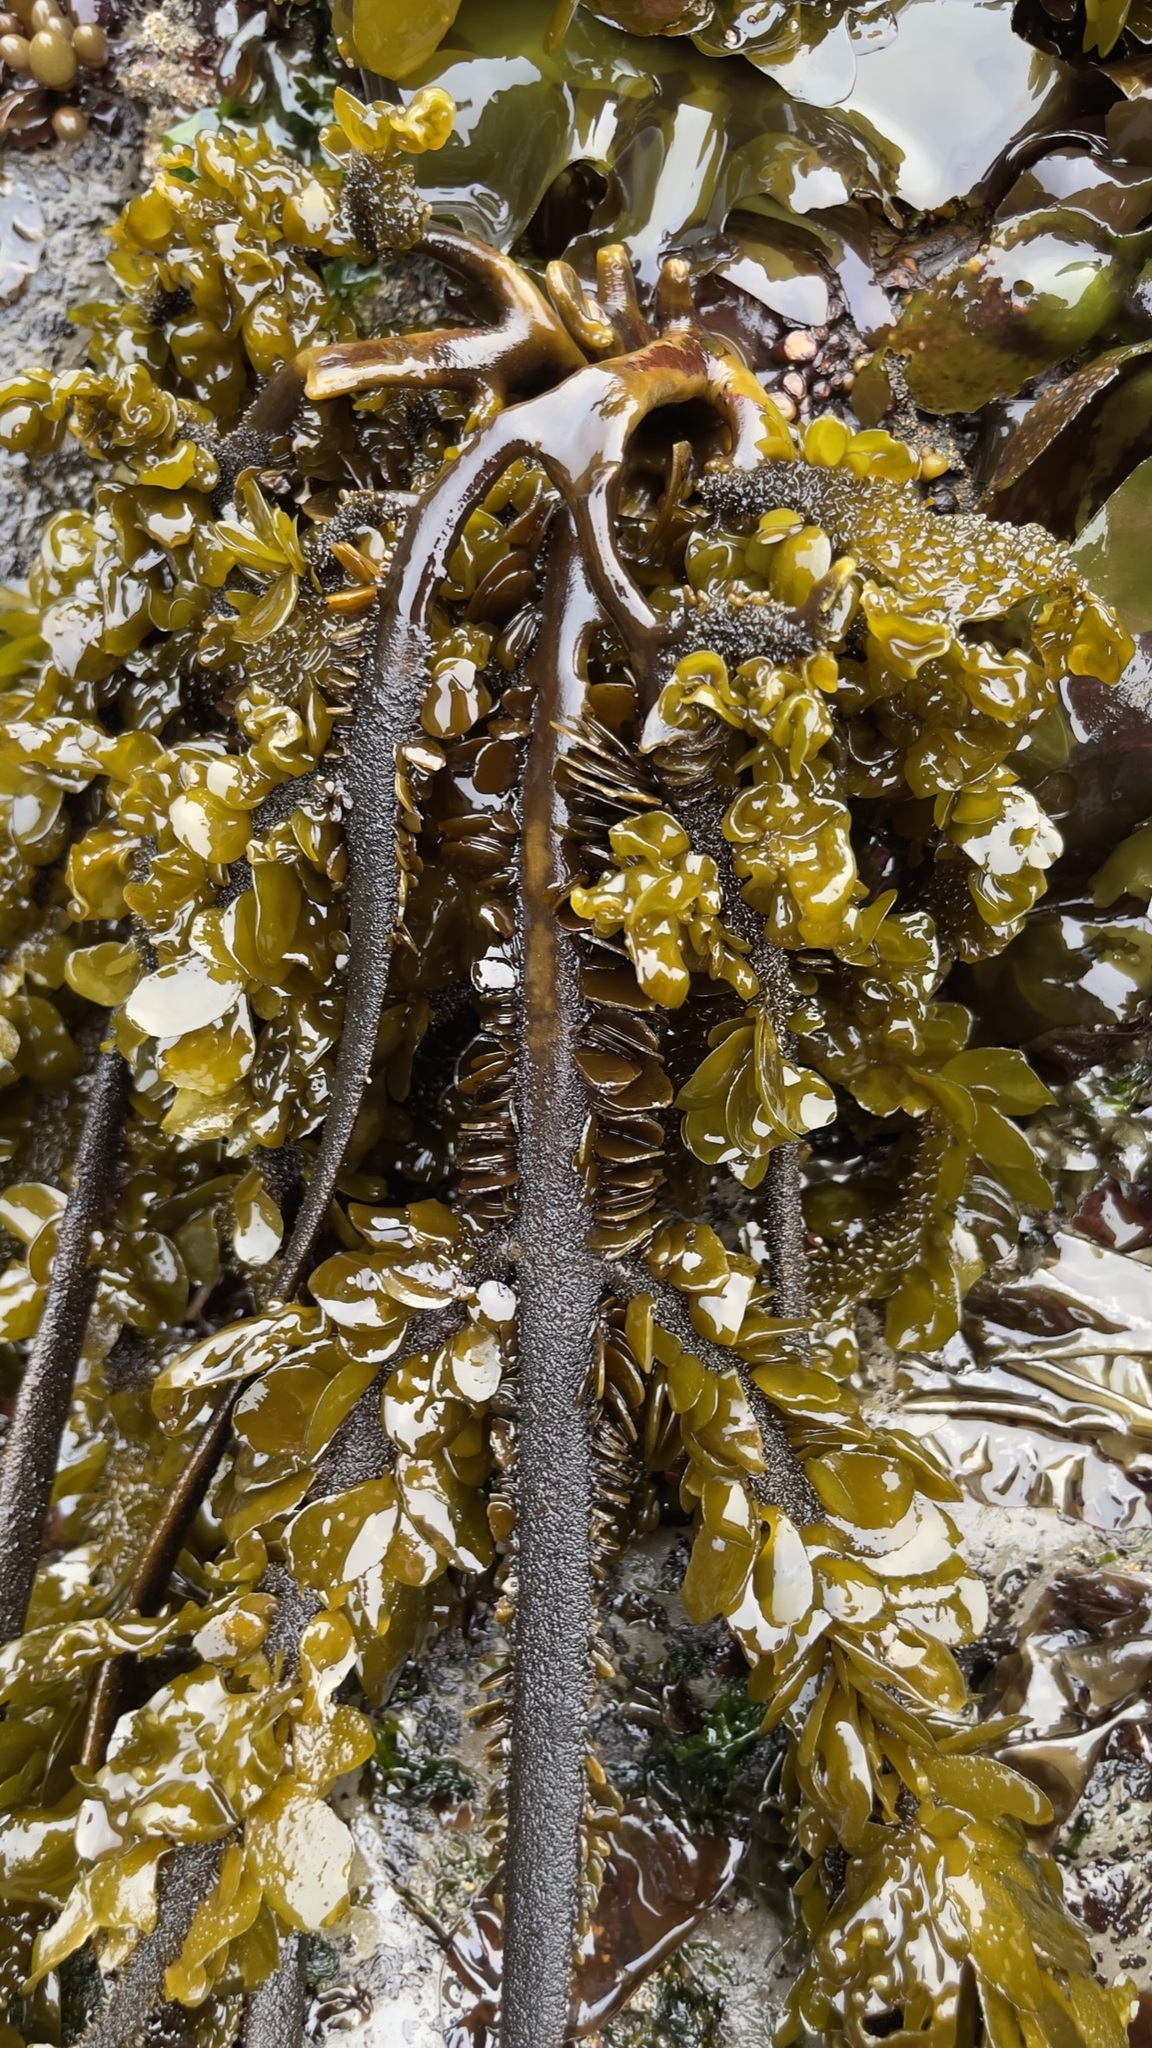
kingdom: Chromista
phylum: Ochrophyta
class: Phaeophyceae
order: Laminariales
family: Lessoniaceae
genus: Egregia
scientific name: Egregia menziesii
